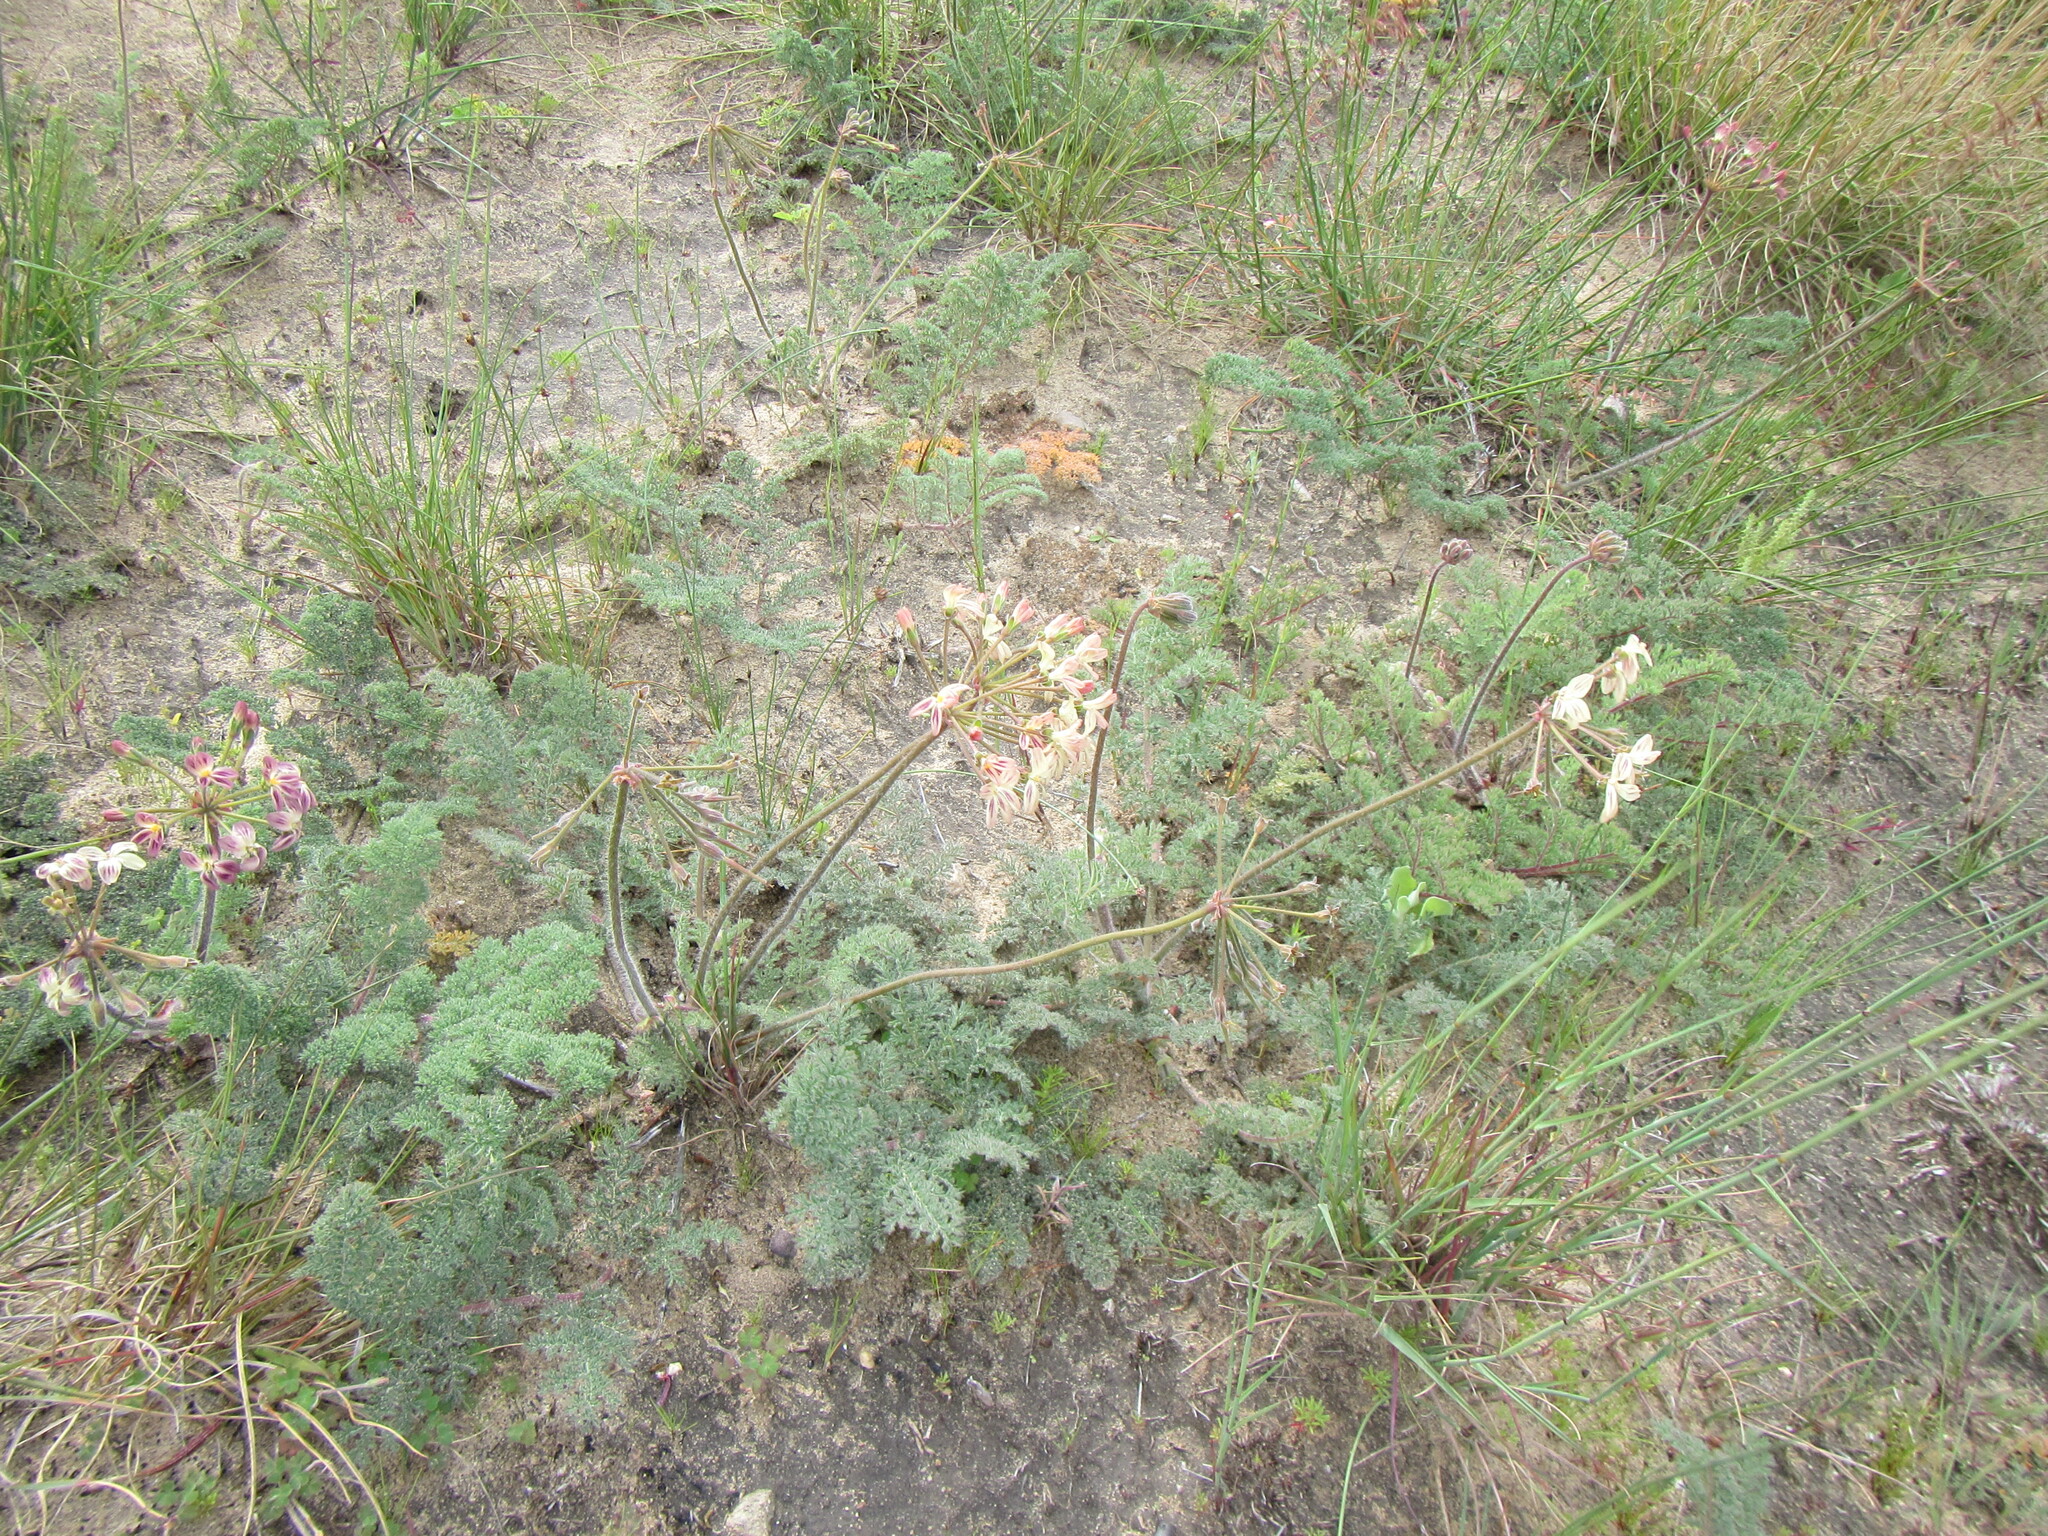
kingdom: Plantae
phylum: Tracheophyta
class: Magnoliopsida
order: Geraniales
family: Geraniaceae
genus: Pelargonium
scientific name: Pelargonium triste
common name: Night-scent pelargonium
